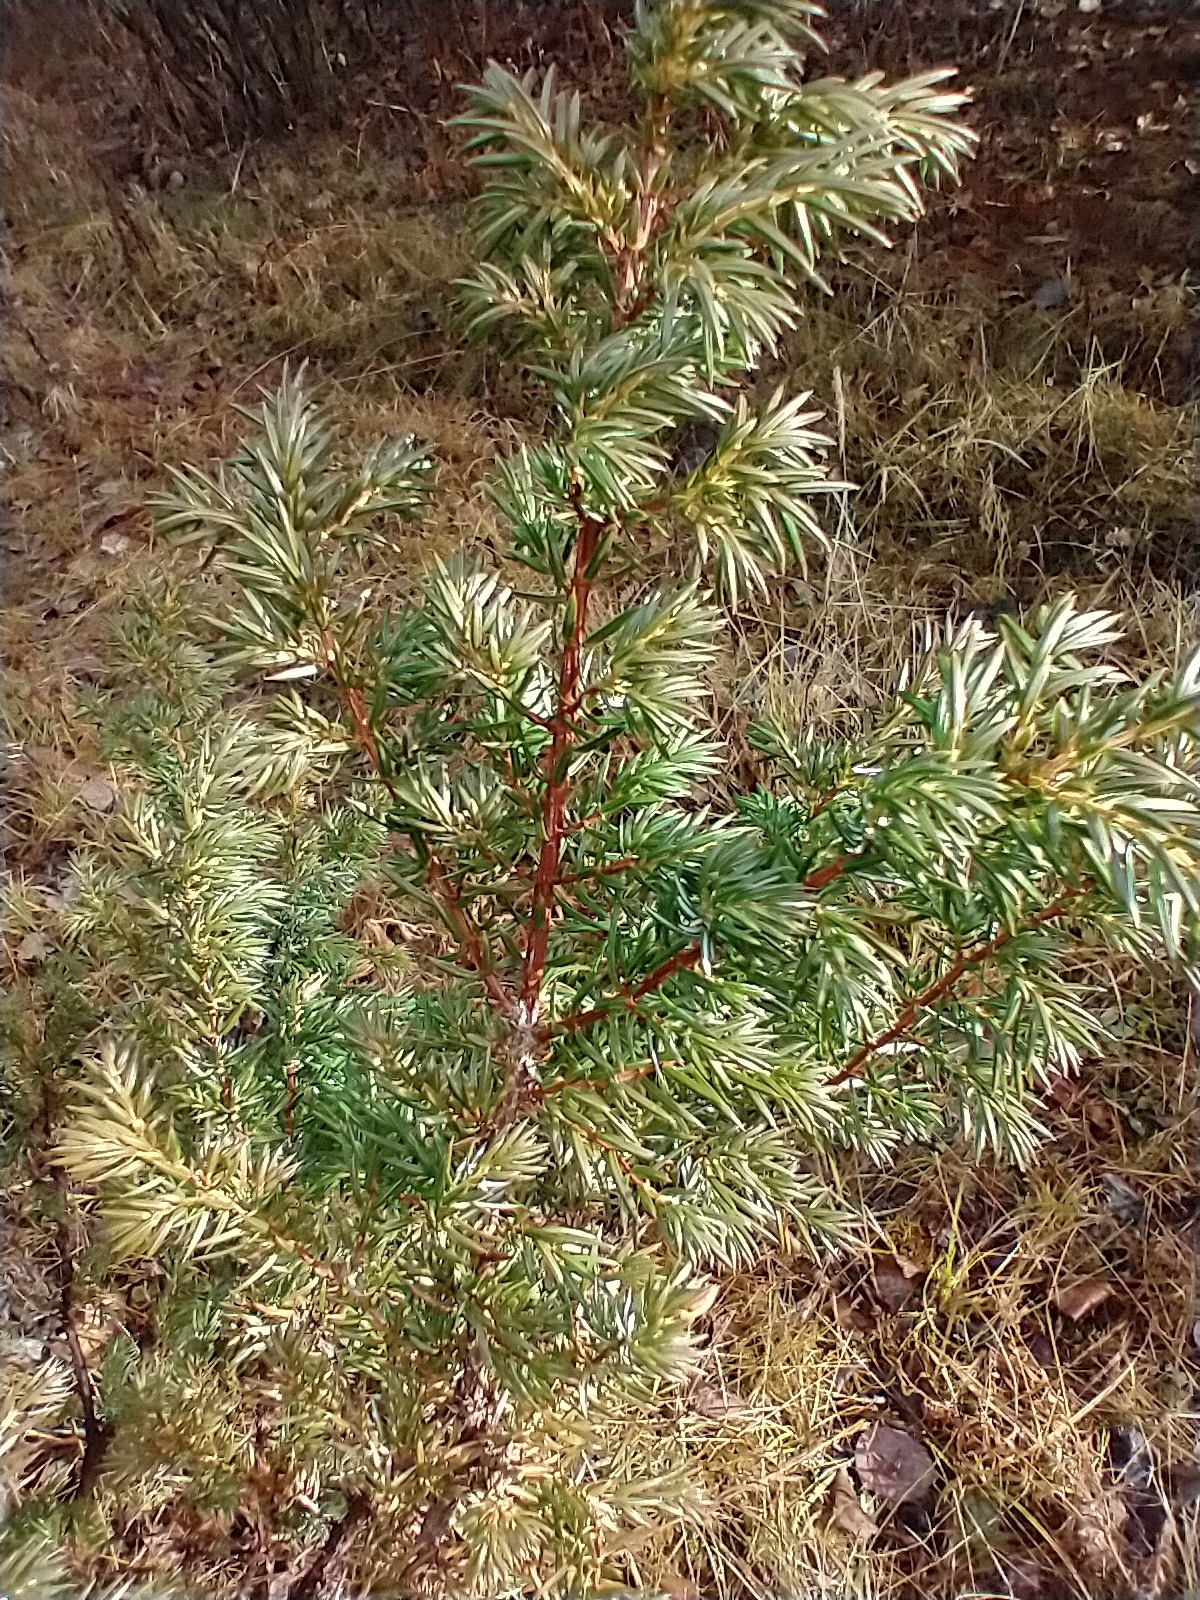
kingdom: Plantae
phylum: Tracheophyta
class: Pinopsida
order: Pinales
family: Cupressaceae
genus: Juniperus
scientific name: Juniperus communis
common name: Common juniper
